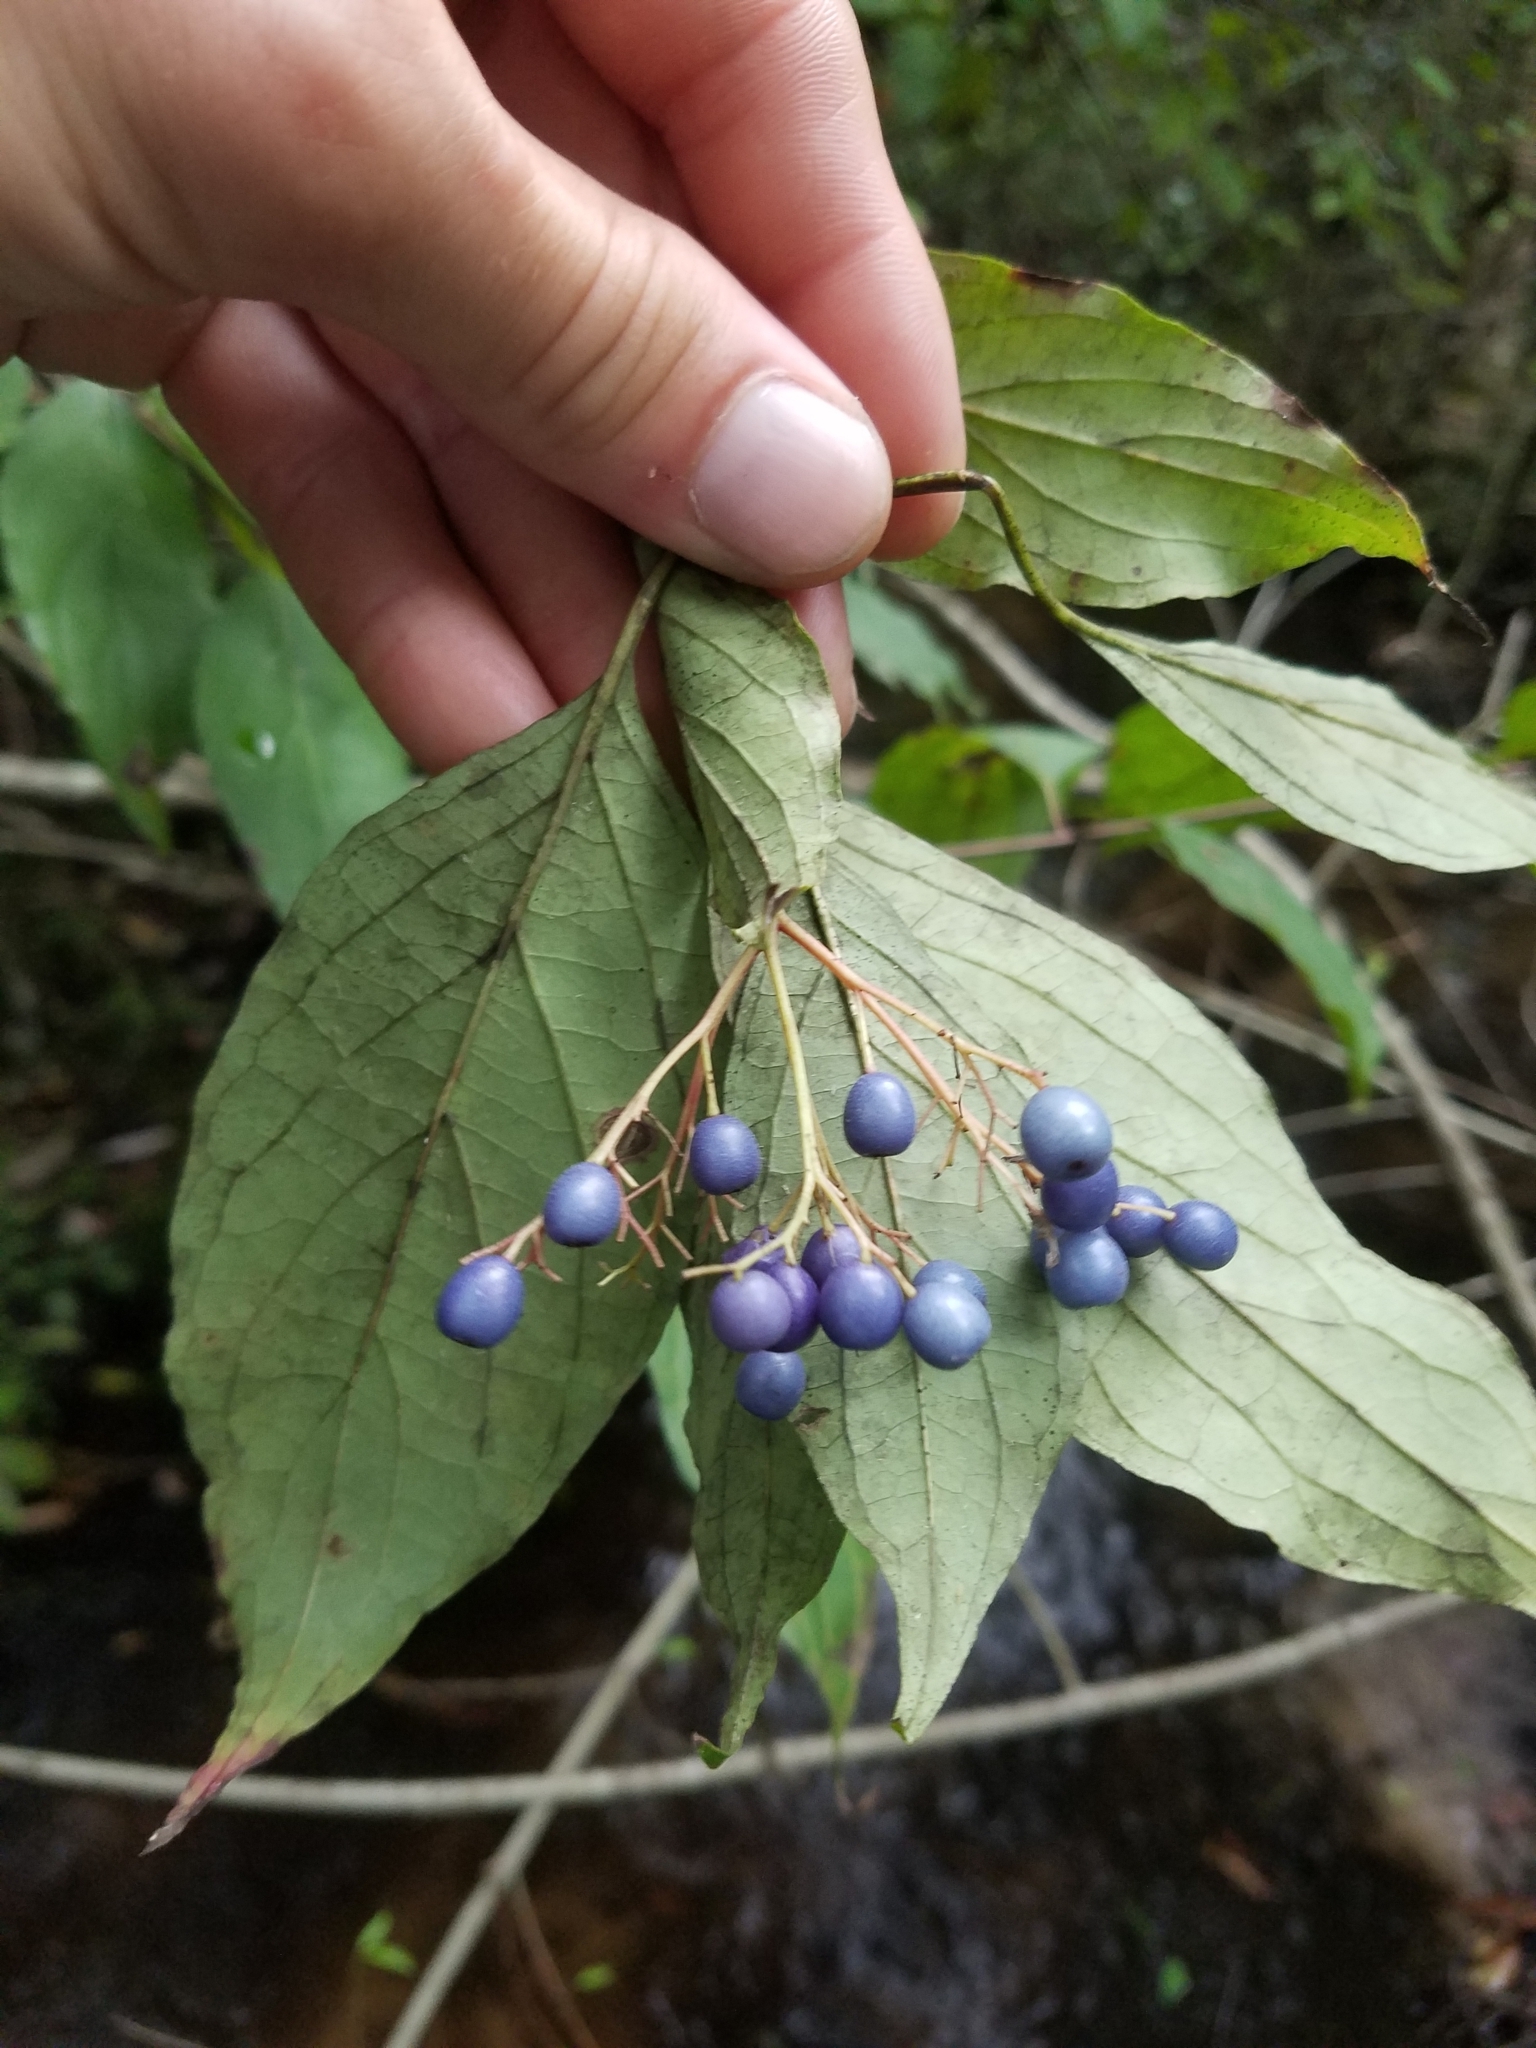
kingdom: Plantae
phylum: Tracheophyta
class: Magnoliopsida
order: Cornales
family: Cornaceae
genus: Cornus
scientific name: Cornus foemina
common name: Swamp dogwood
